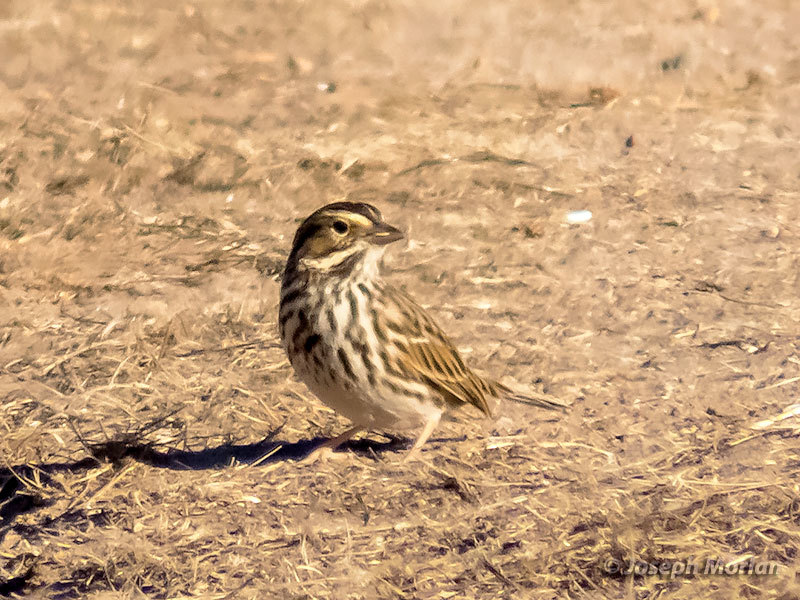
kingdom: Animalia
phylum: Chordata
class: Aves
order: Passeriformes
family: Passerellidae
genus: Passerculus
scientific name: Passerculus sandwichensis
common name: Savannah sparrow
